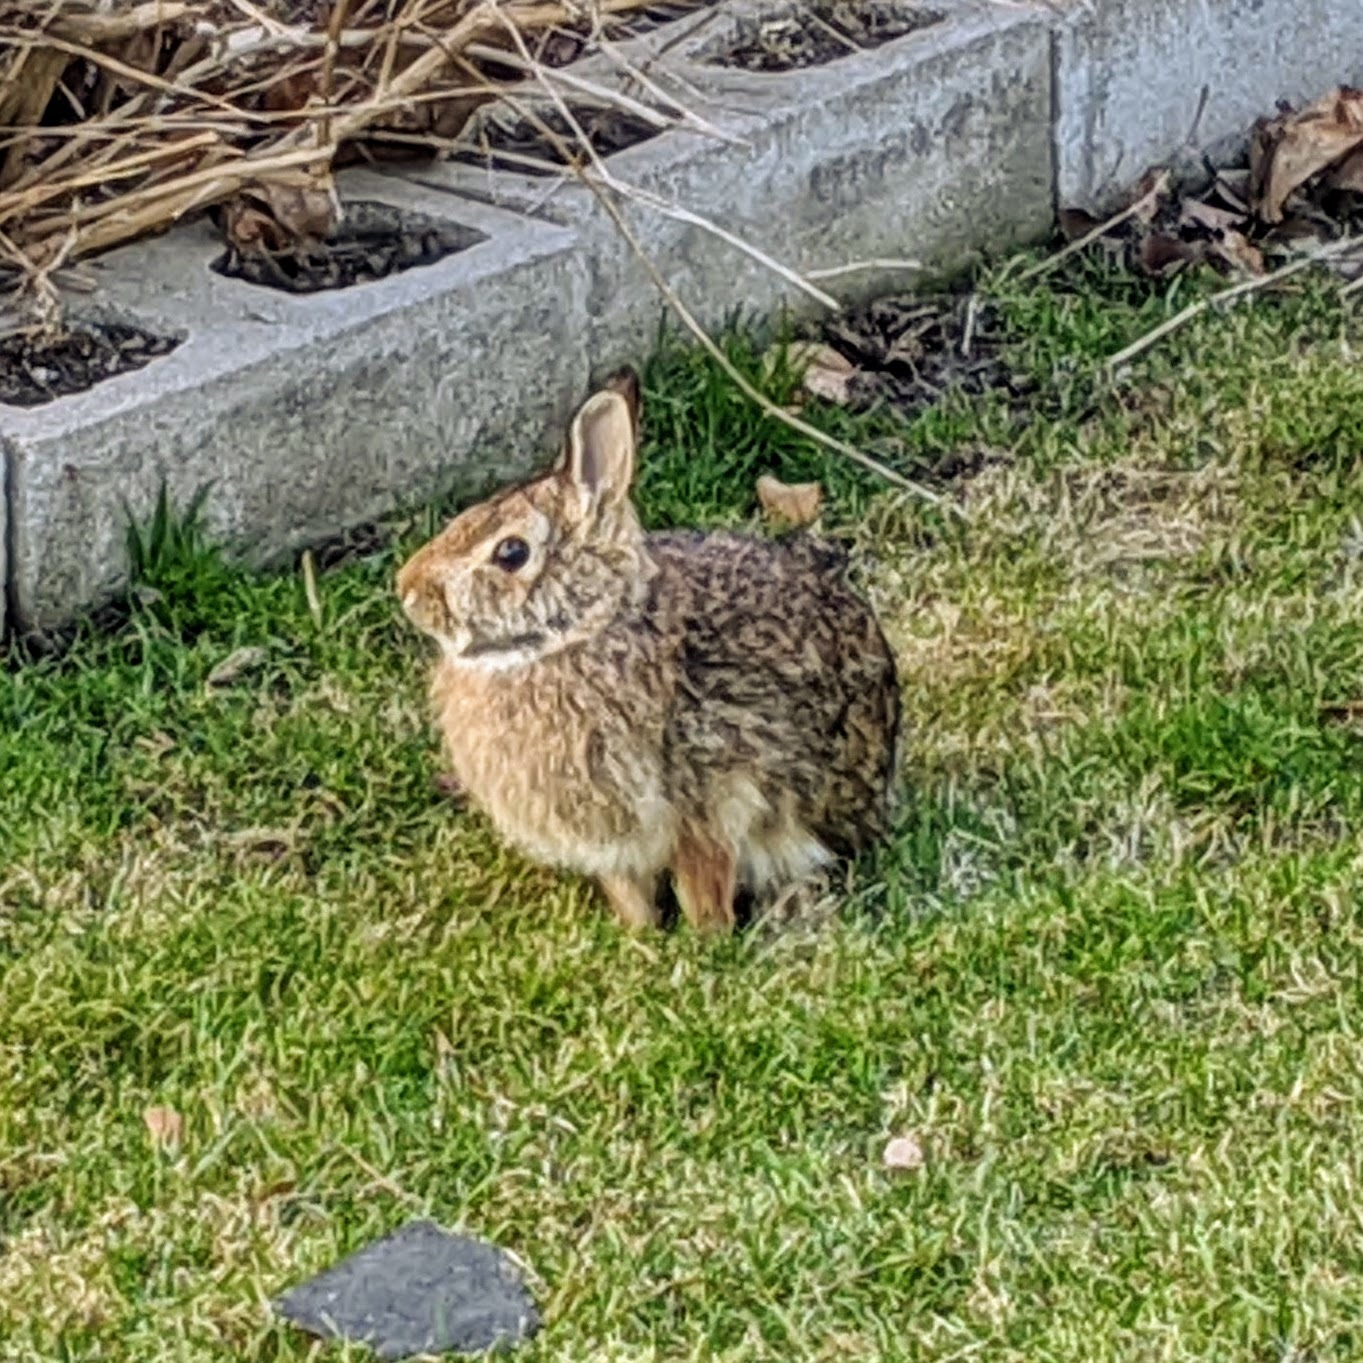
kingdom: Animalia
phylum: Chordata
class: Mammalia
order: Lagomorpha
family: Leporidae
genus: Sylvilagus
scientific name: Sylvilagus floridanus
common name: Eastern cottontail
